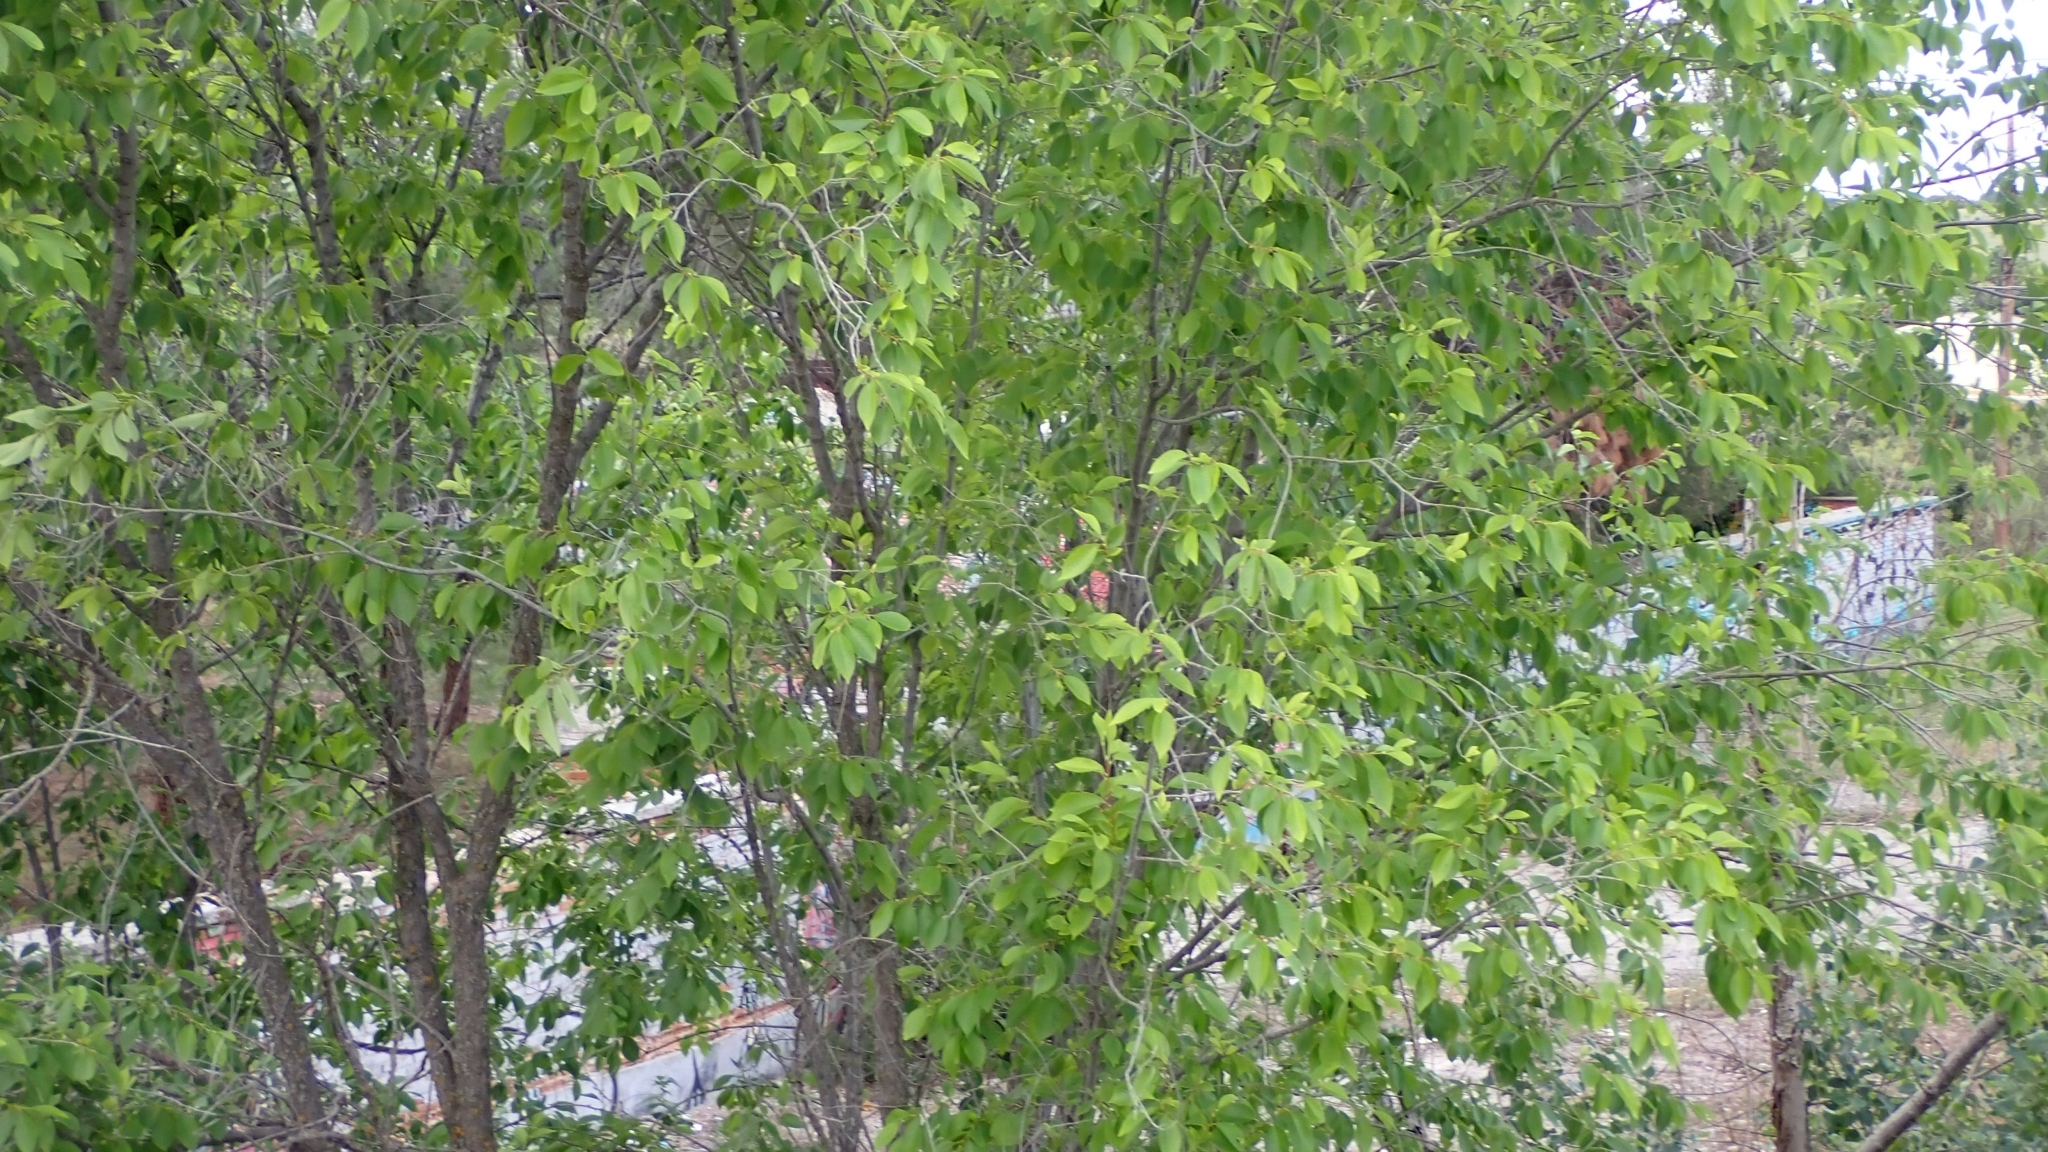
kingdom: Plantae
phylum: Tracheophyta
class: Magnoliopsida
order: Rosales
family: Ulmaceae
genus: Ulmus
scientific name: Ulmus pumila
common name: Siberian elm
